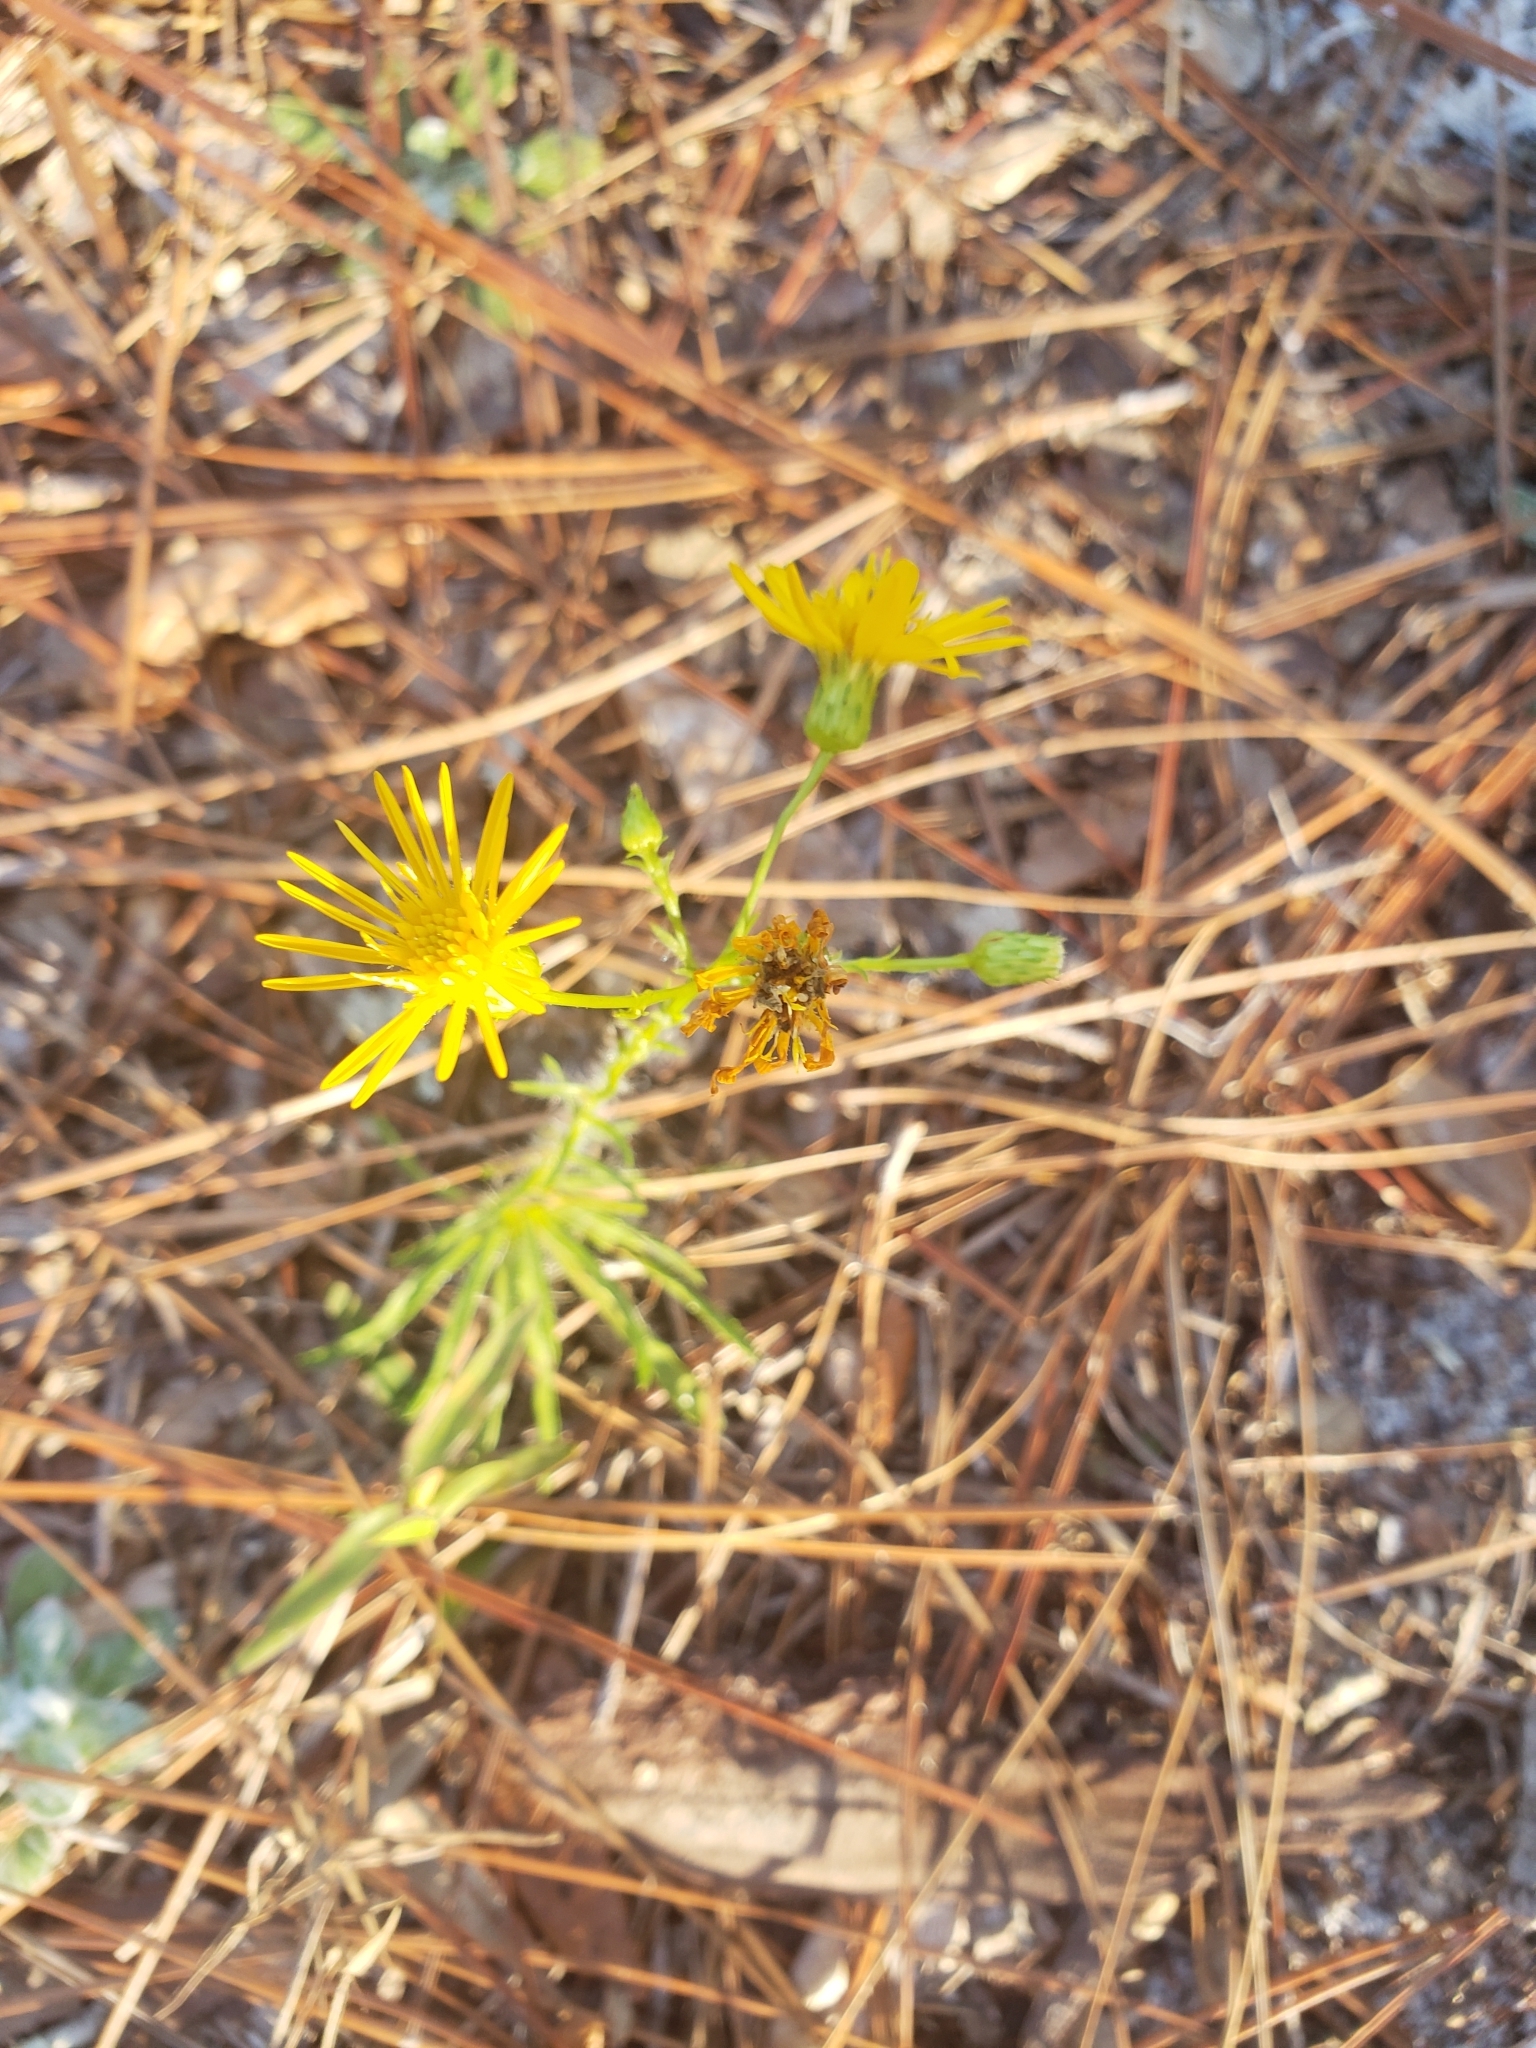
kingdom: Plantae
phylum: Tracheophyta
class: Magnoliopsida
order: Asterales
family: Asteraceae
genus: Chrysopsis
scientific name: Chrysopsis gossypina
